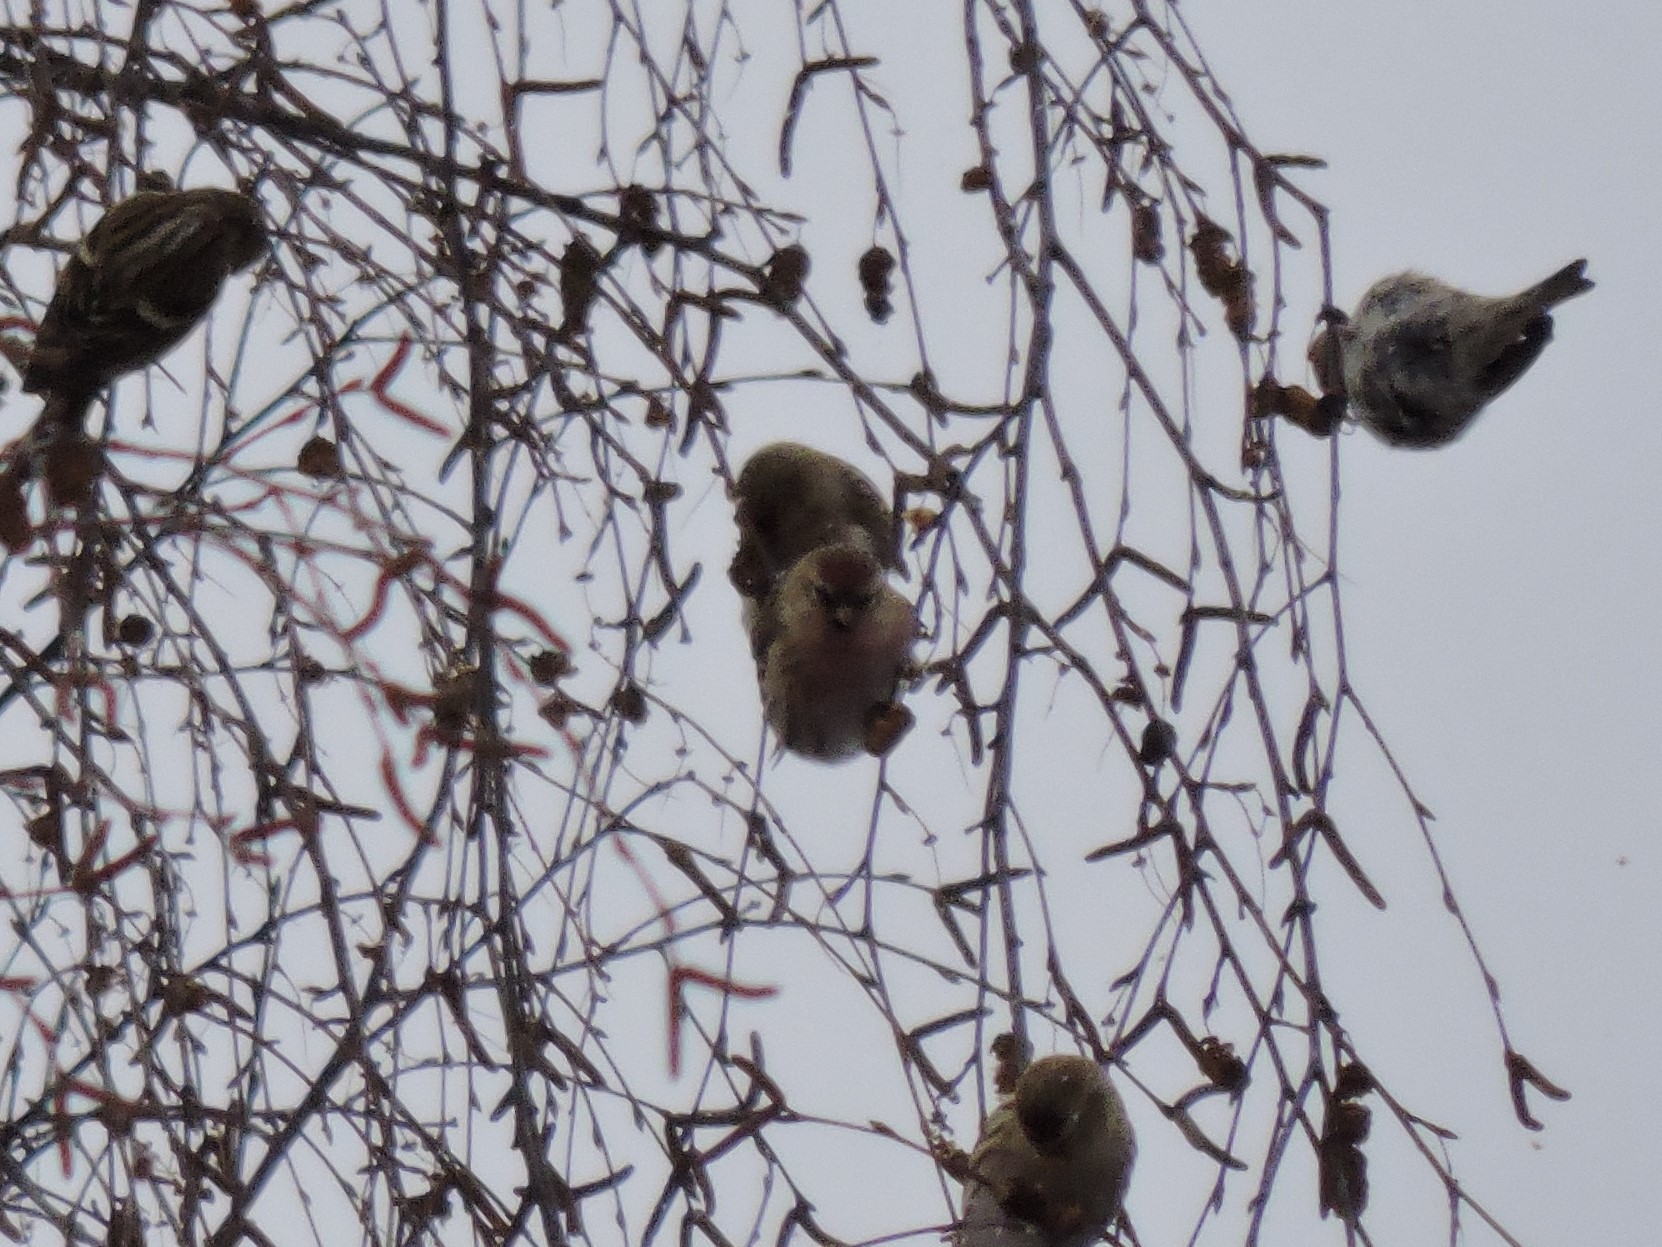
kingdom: Animalia
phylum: Chordata
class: Aves
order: Passeriformes
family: Fringillidae
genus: Acanthis
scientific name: Acanthis flammea
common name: Common redpoll
